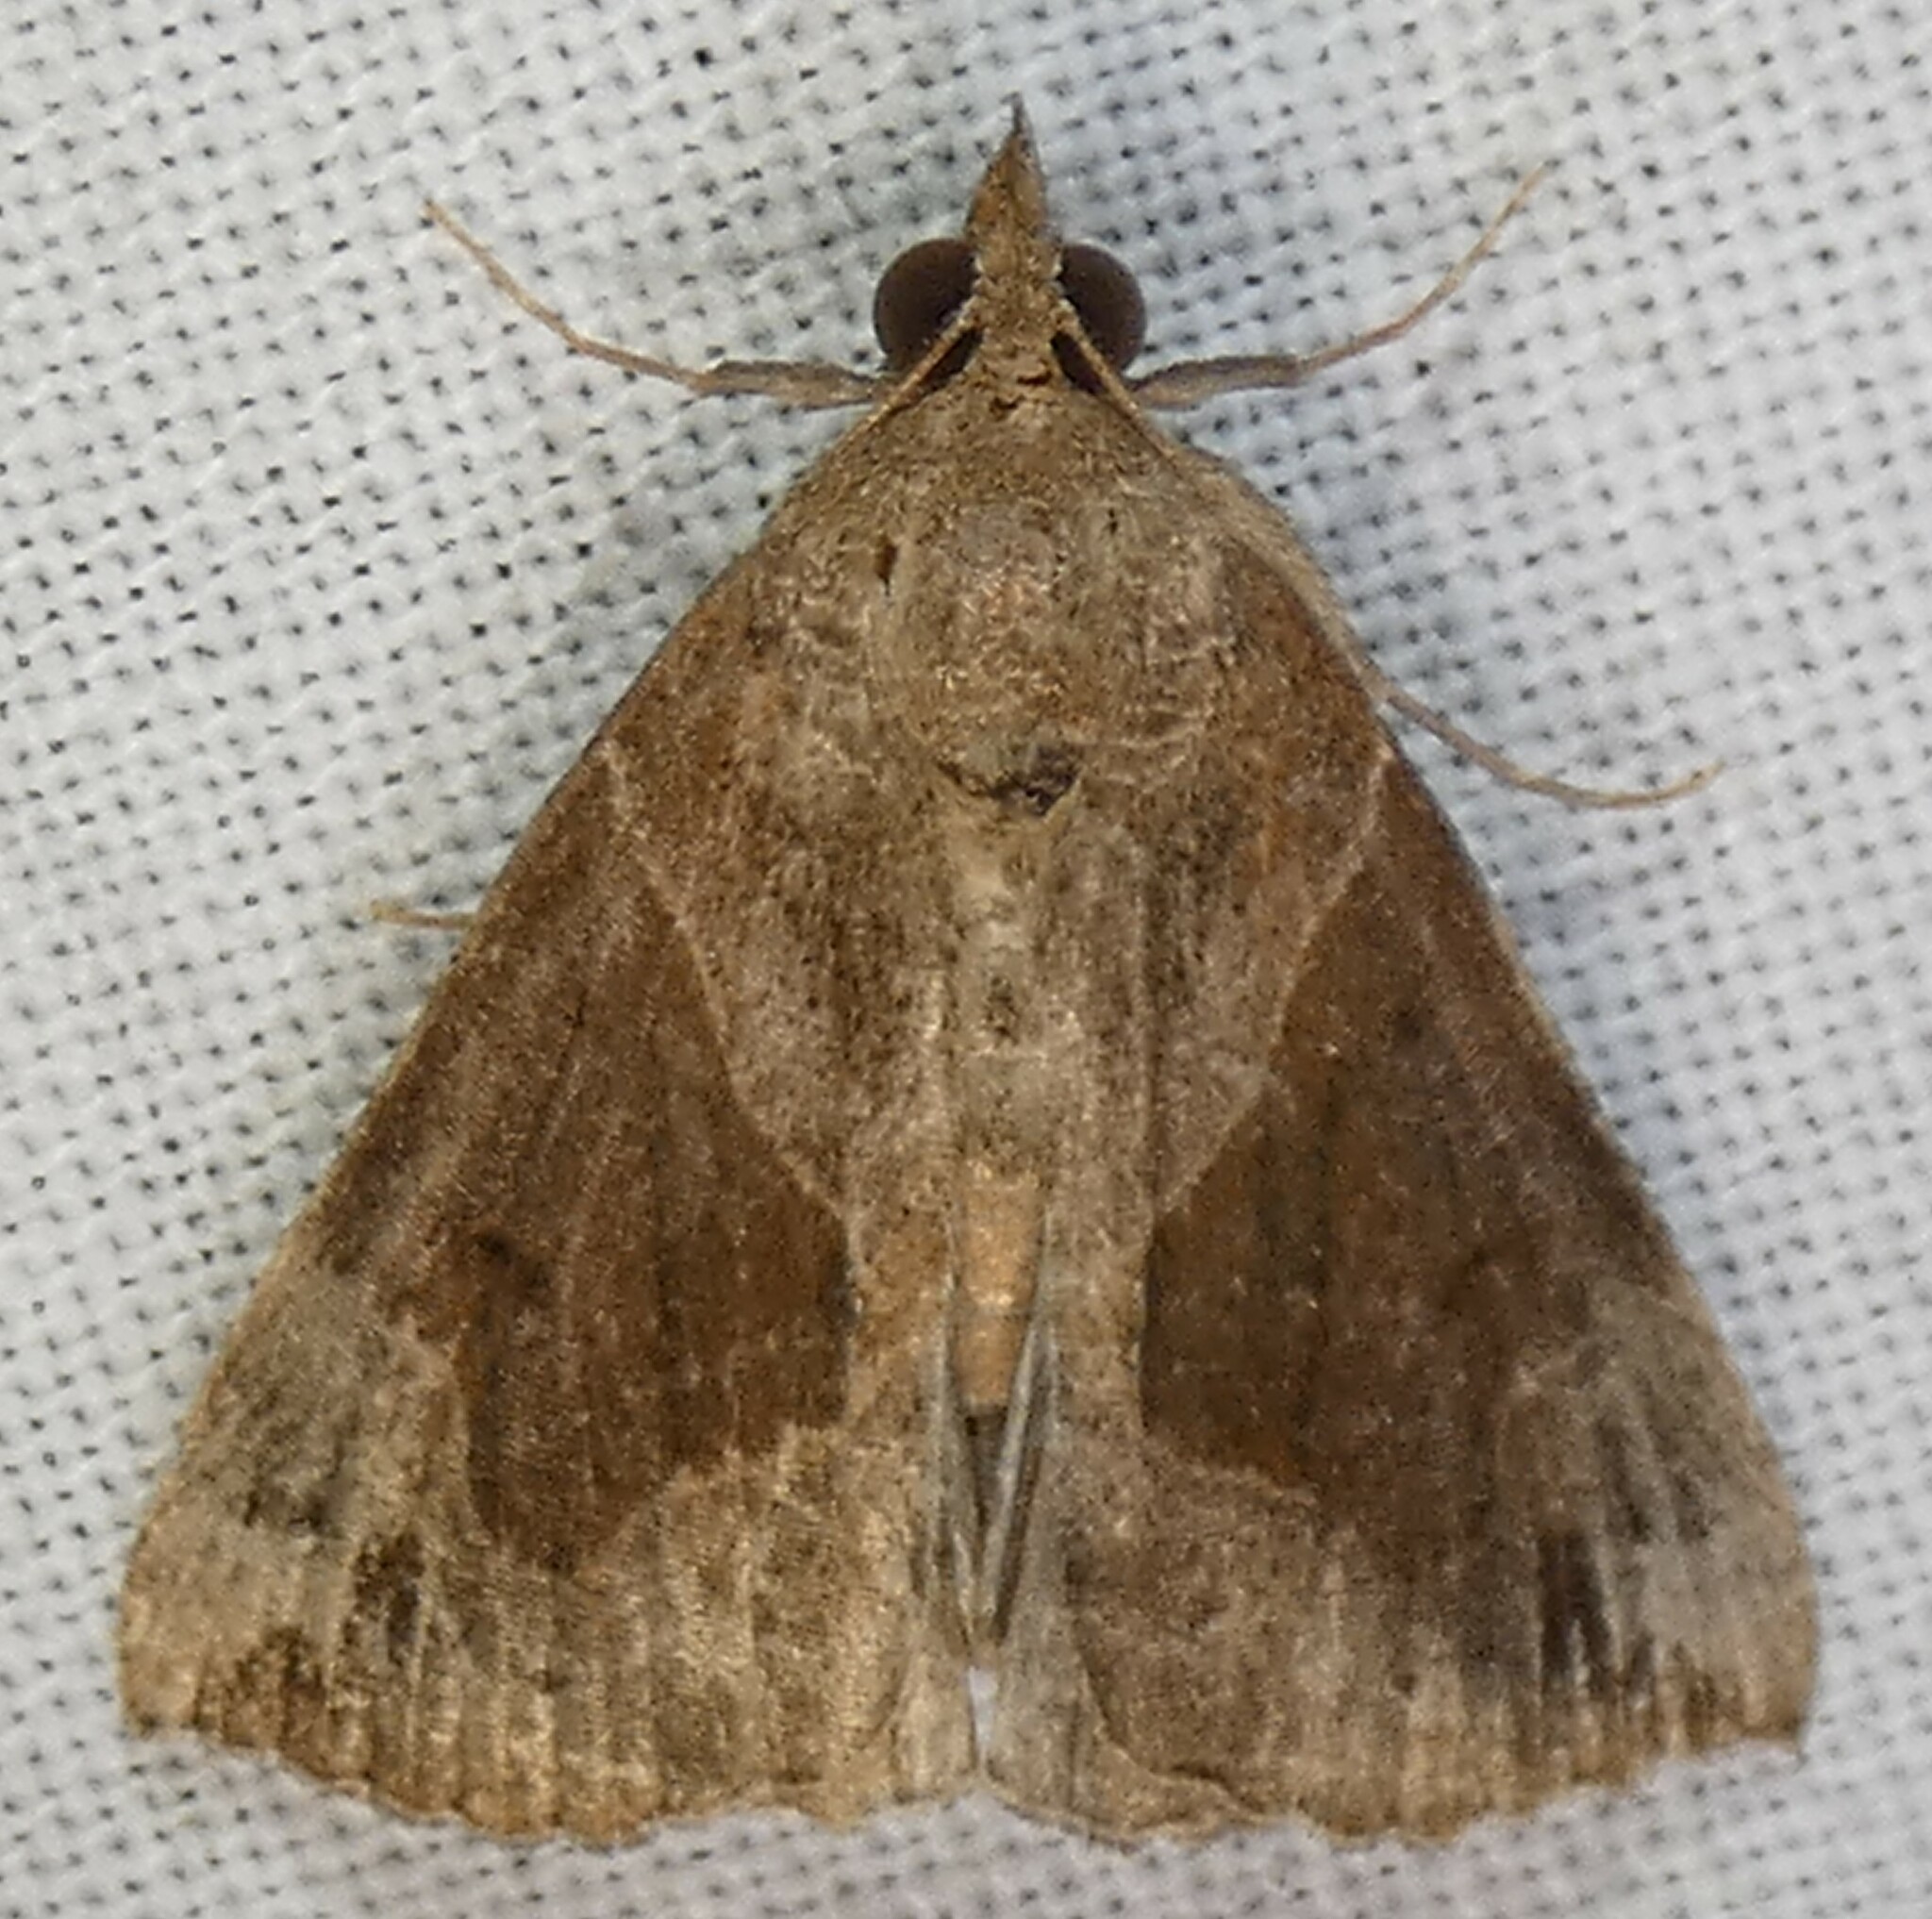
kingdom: Animalia
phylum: Arthropoda
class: Insecta
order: Lepidoptera
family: Erebidae
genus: Hypena
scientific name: Hypena manalis
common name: Flowing-line bomolocha moth
